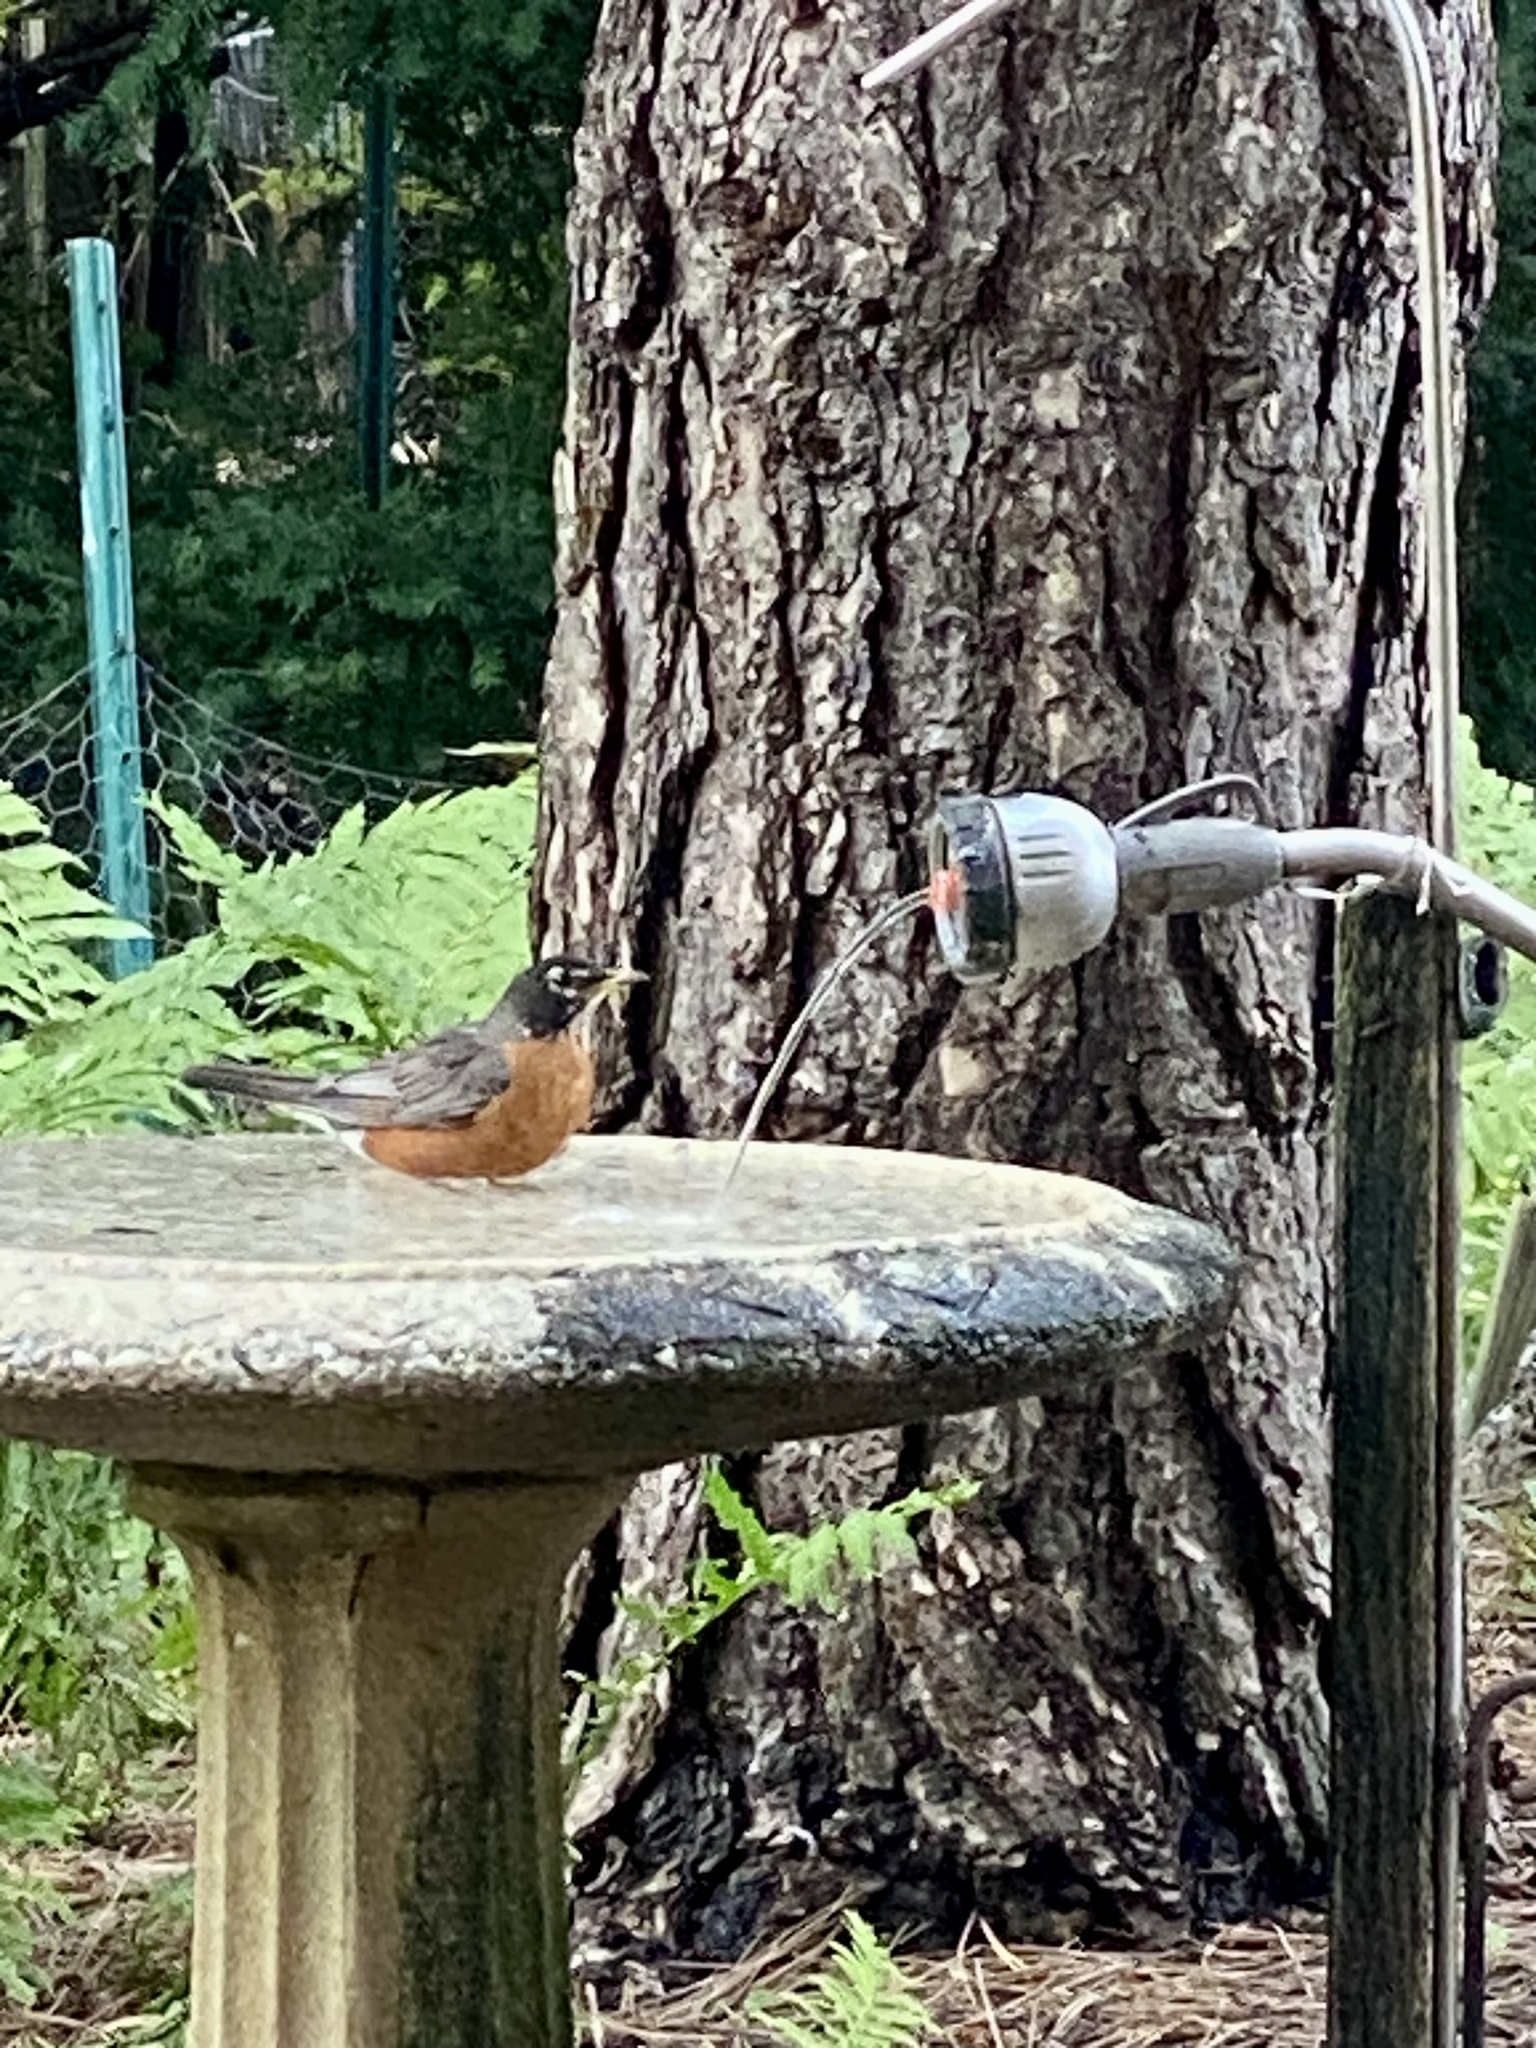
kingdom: Animalia
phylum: Chordata
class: Aves
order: Passeriformes
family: Turdidae
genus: Turdus
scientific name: Turdus migratorius
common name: American robin
